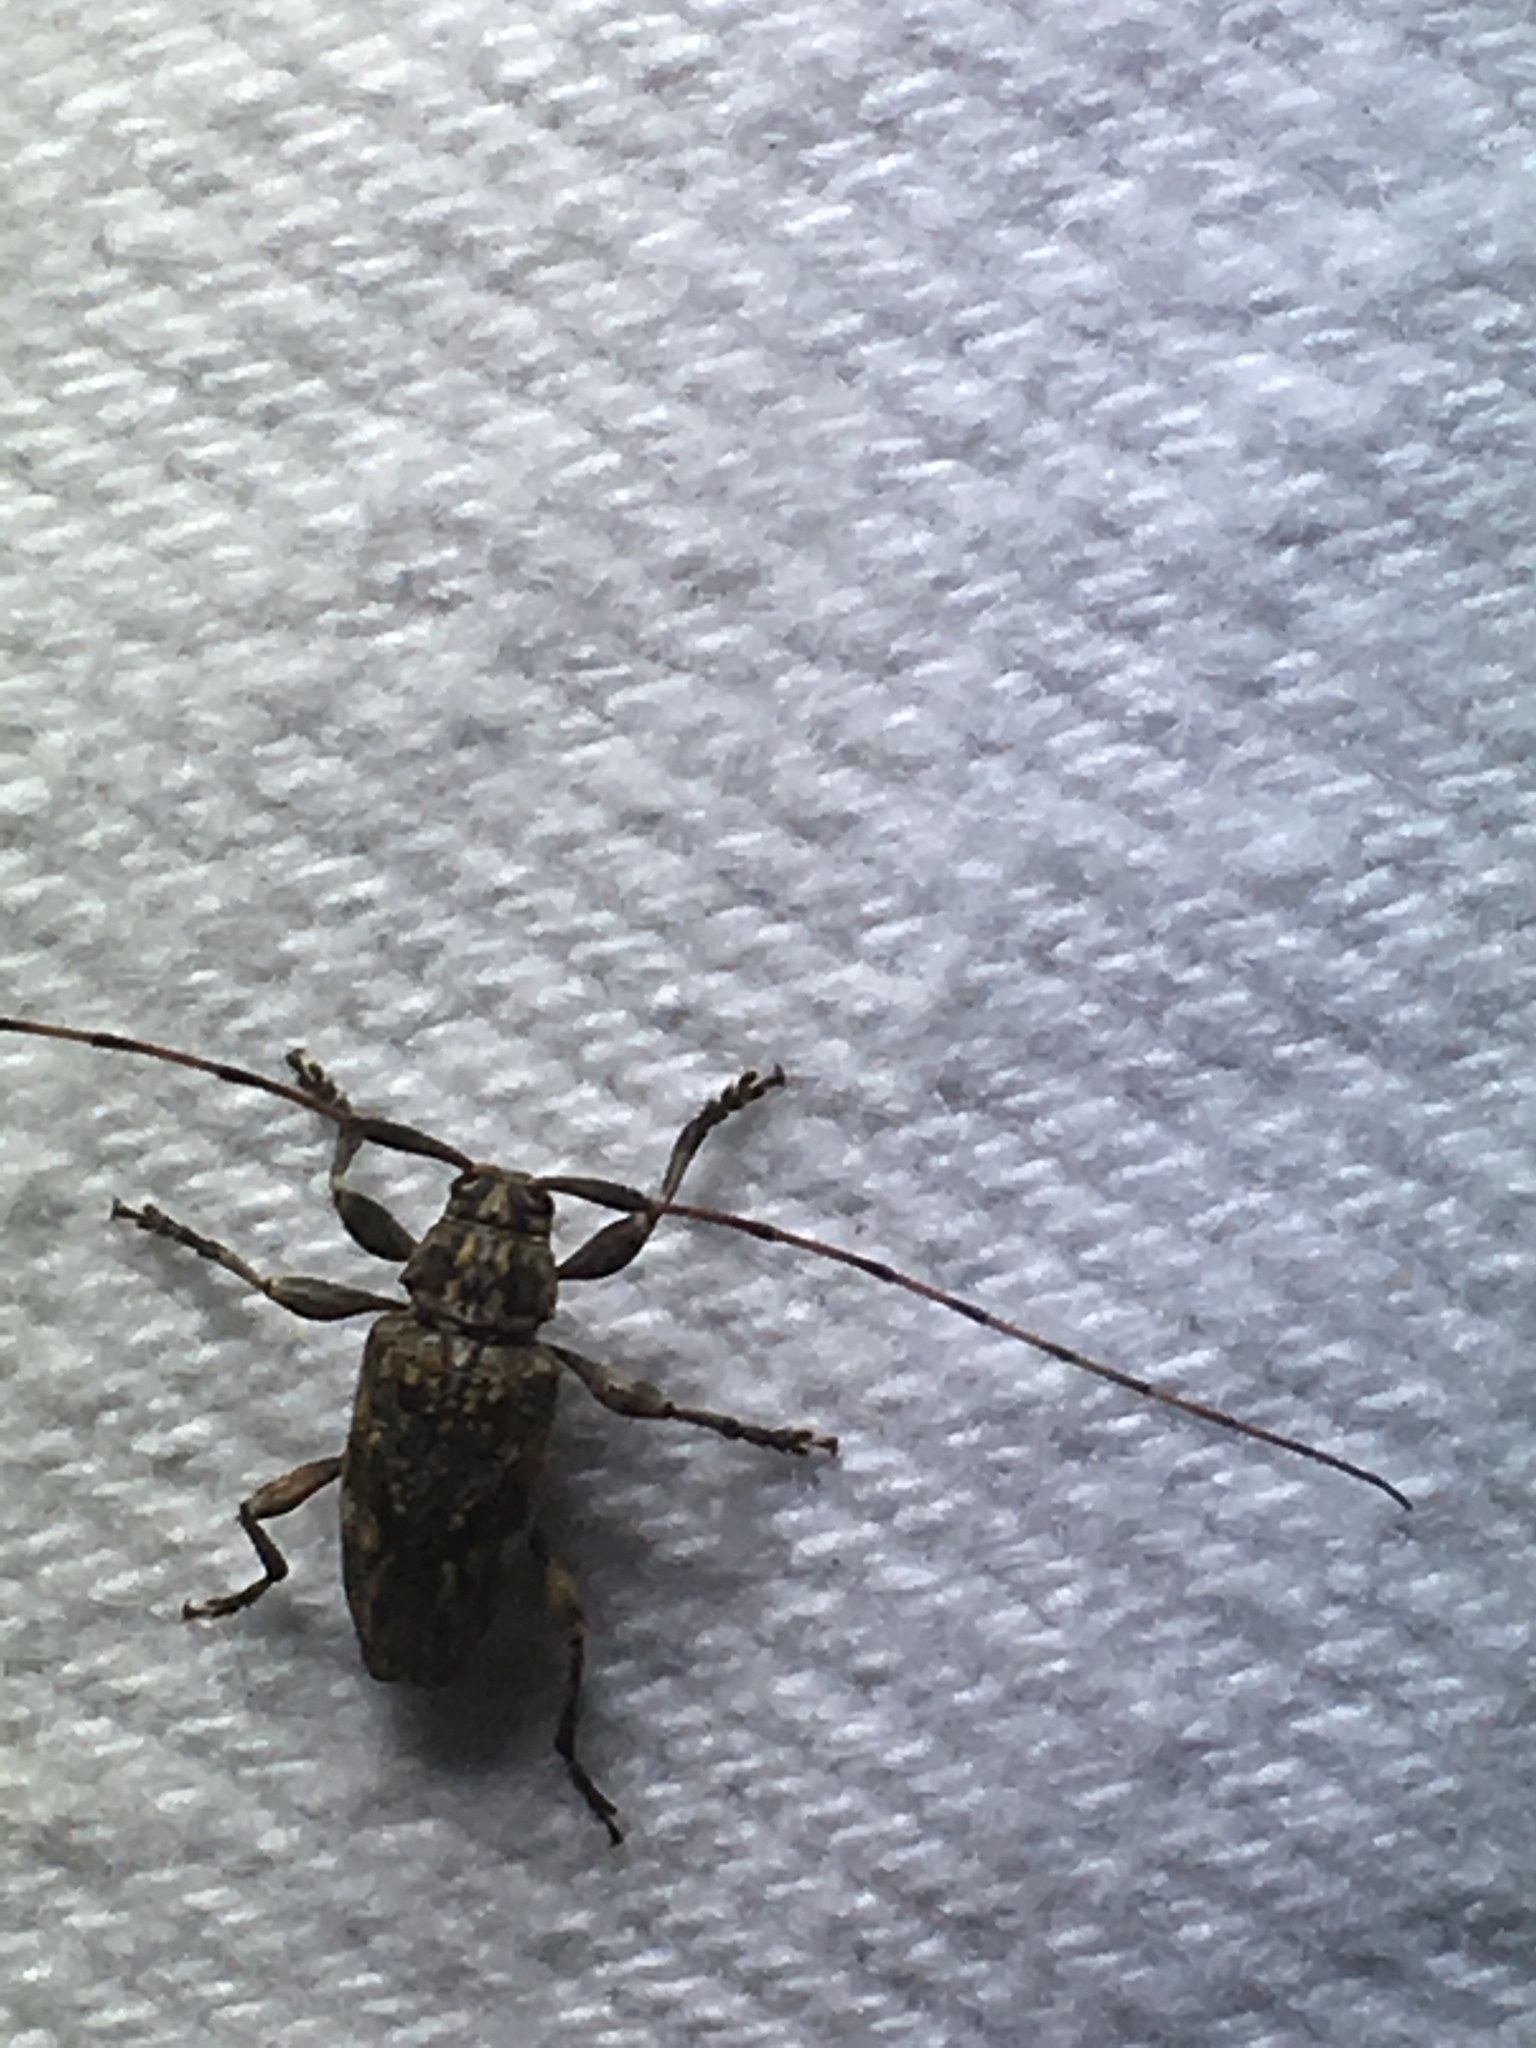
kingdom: Animalia
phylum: Arthropoda
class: Insecta
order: Coleoptera
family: Cerambycidae
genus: Atrypanius
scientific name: Atrypanius haldemani
